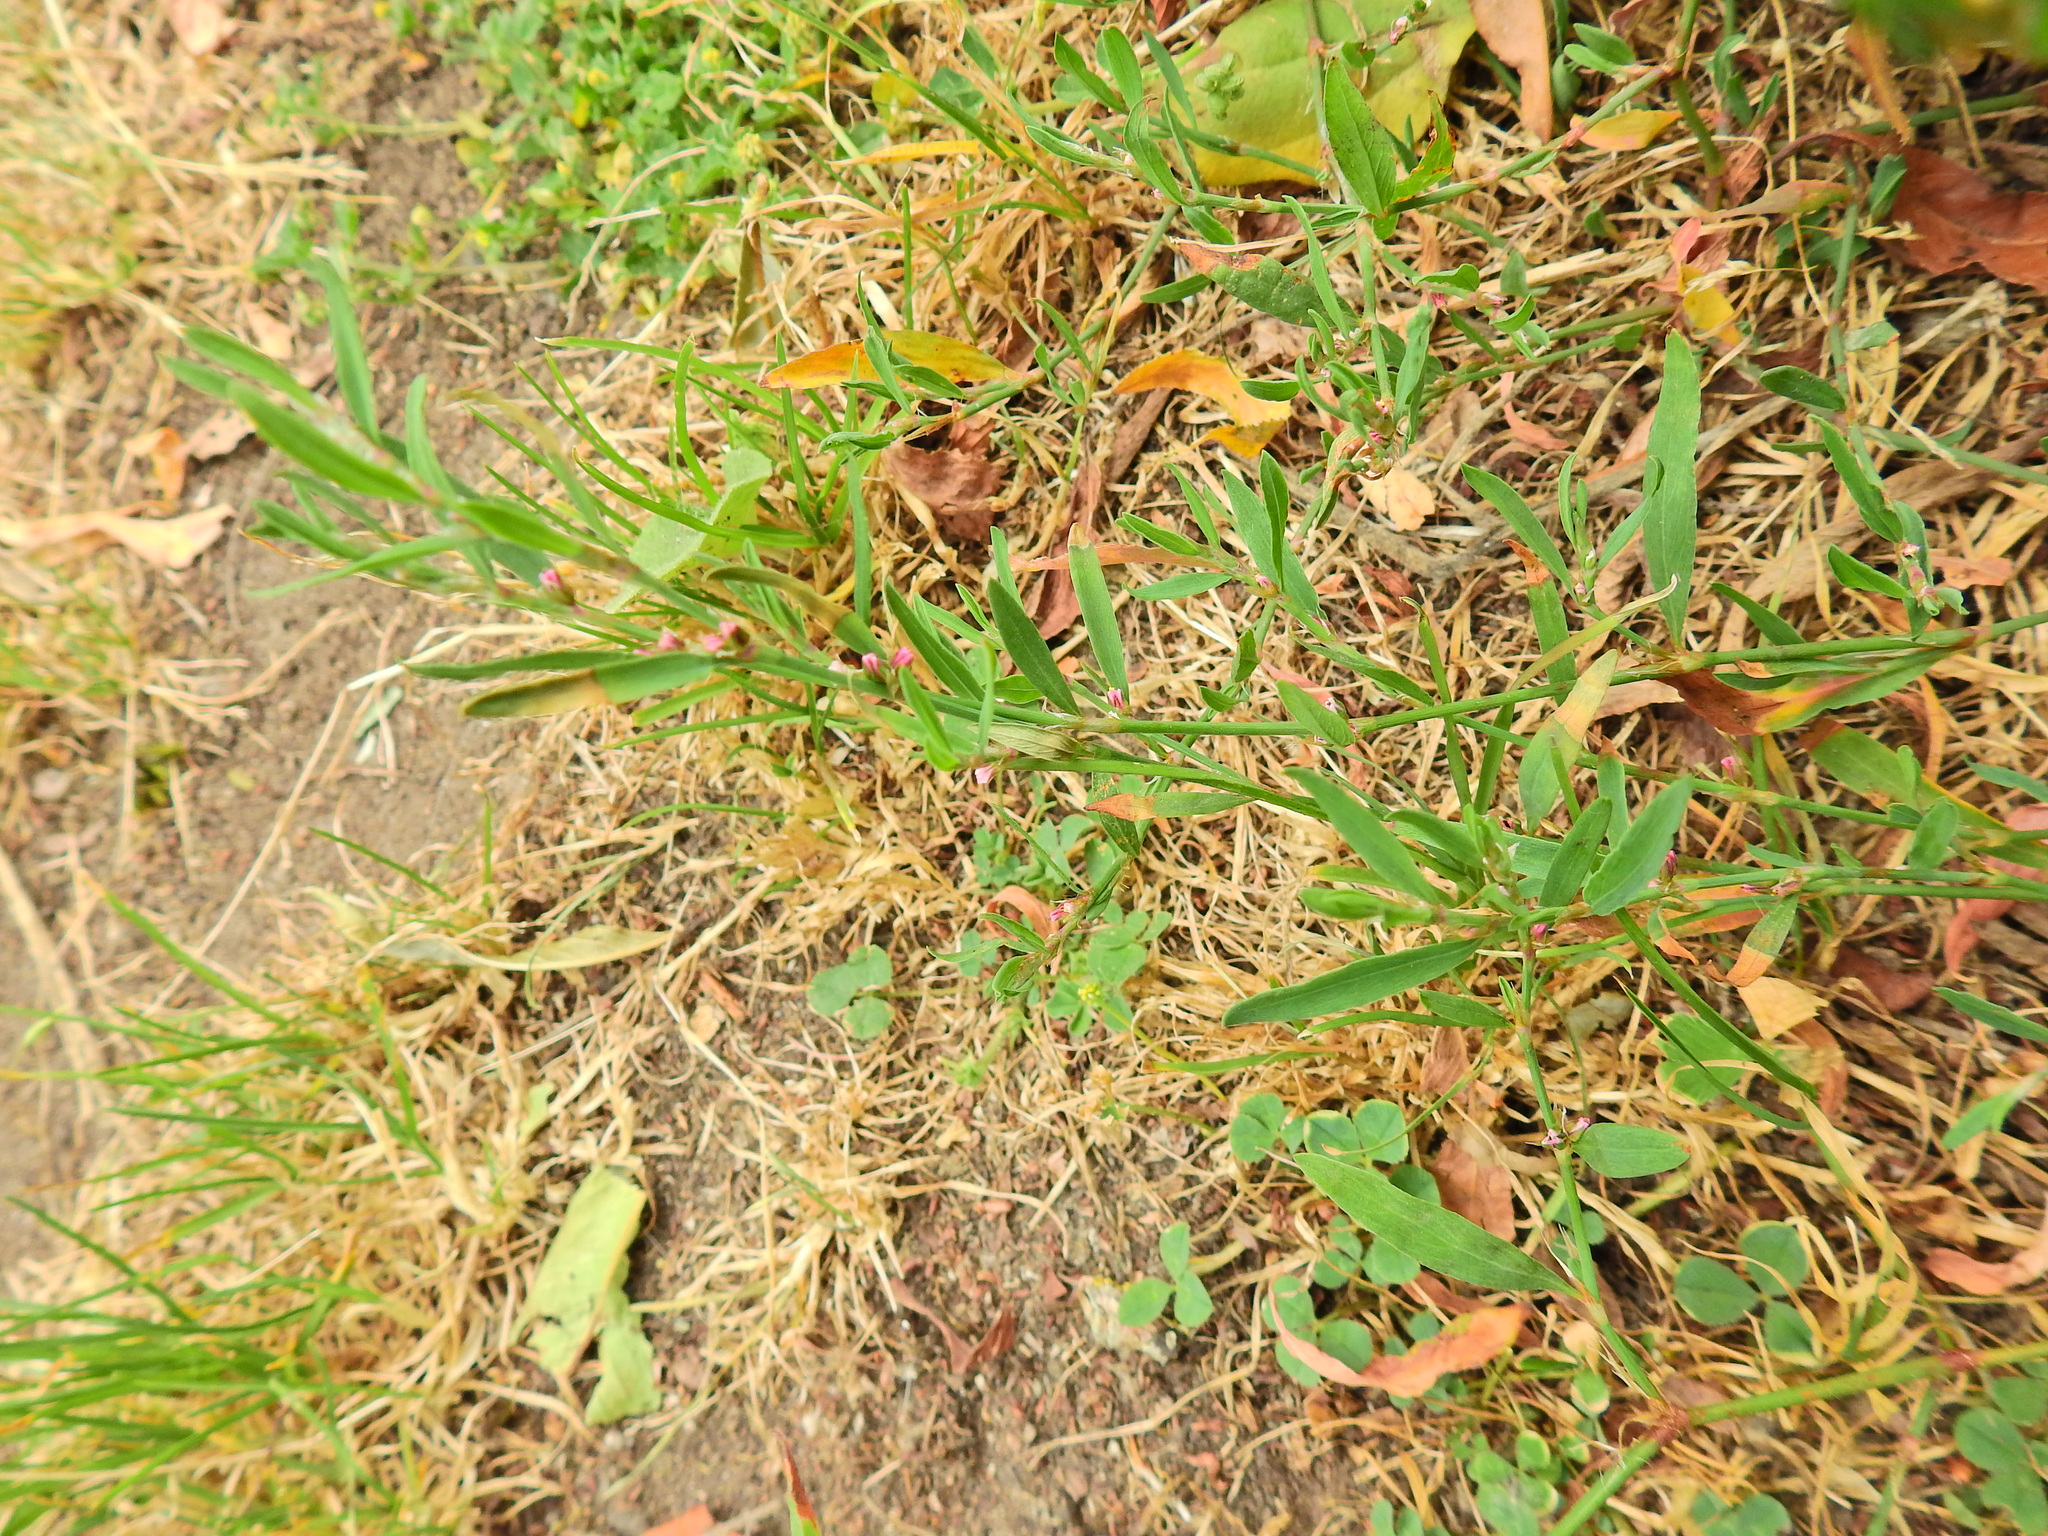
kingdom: Plantae
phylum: Tracheophyta
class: Magnoliopsida
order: Caryophyllales
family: Polygonaceae
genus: Polygonum
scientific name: Polygonum aviculare
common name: Prostrate knotweed
